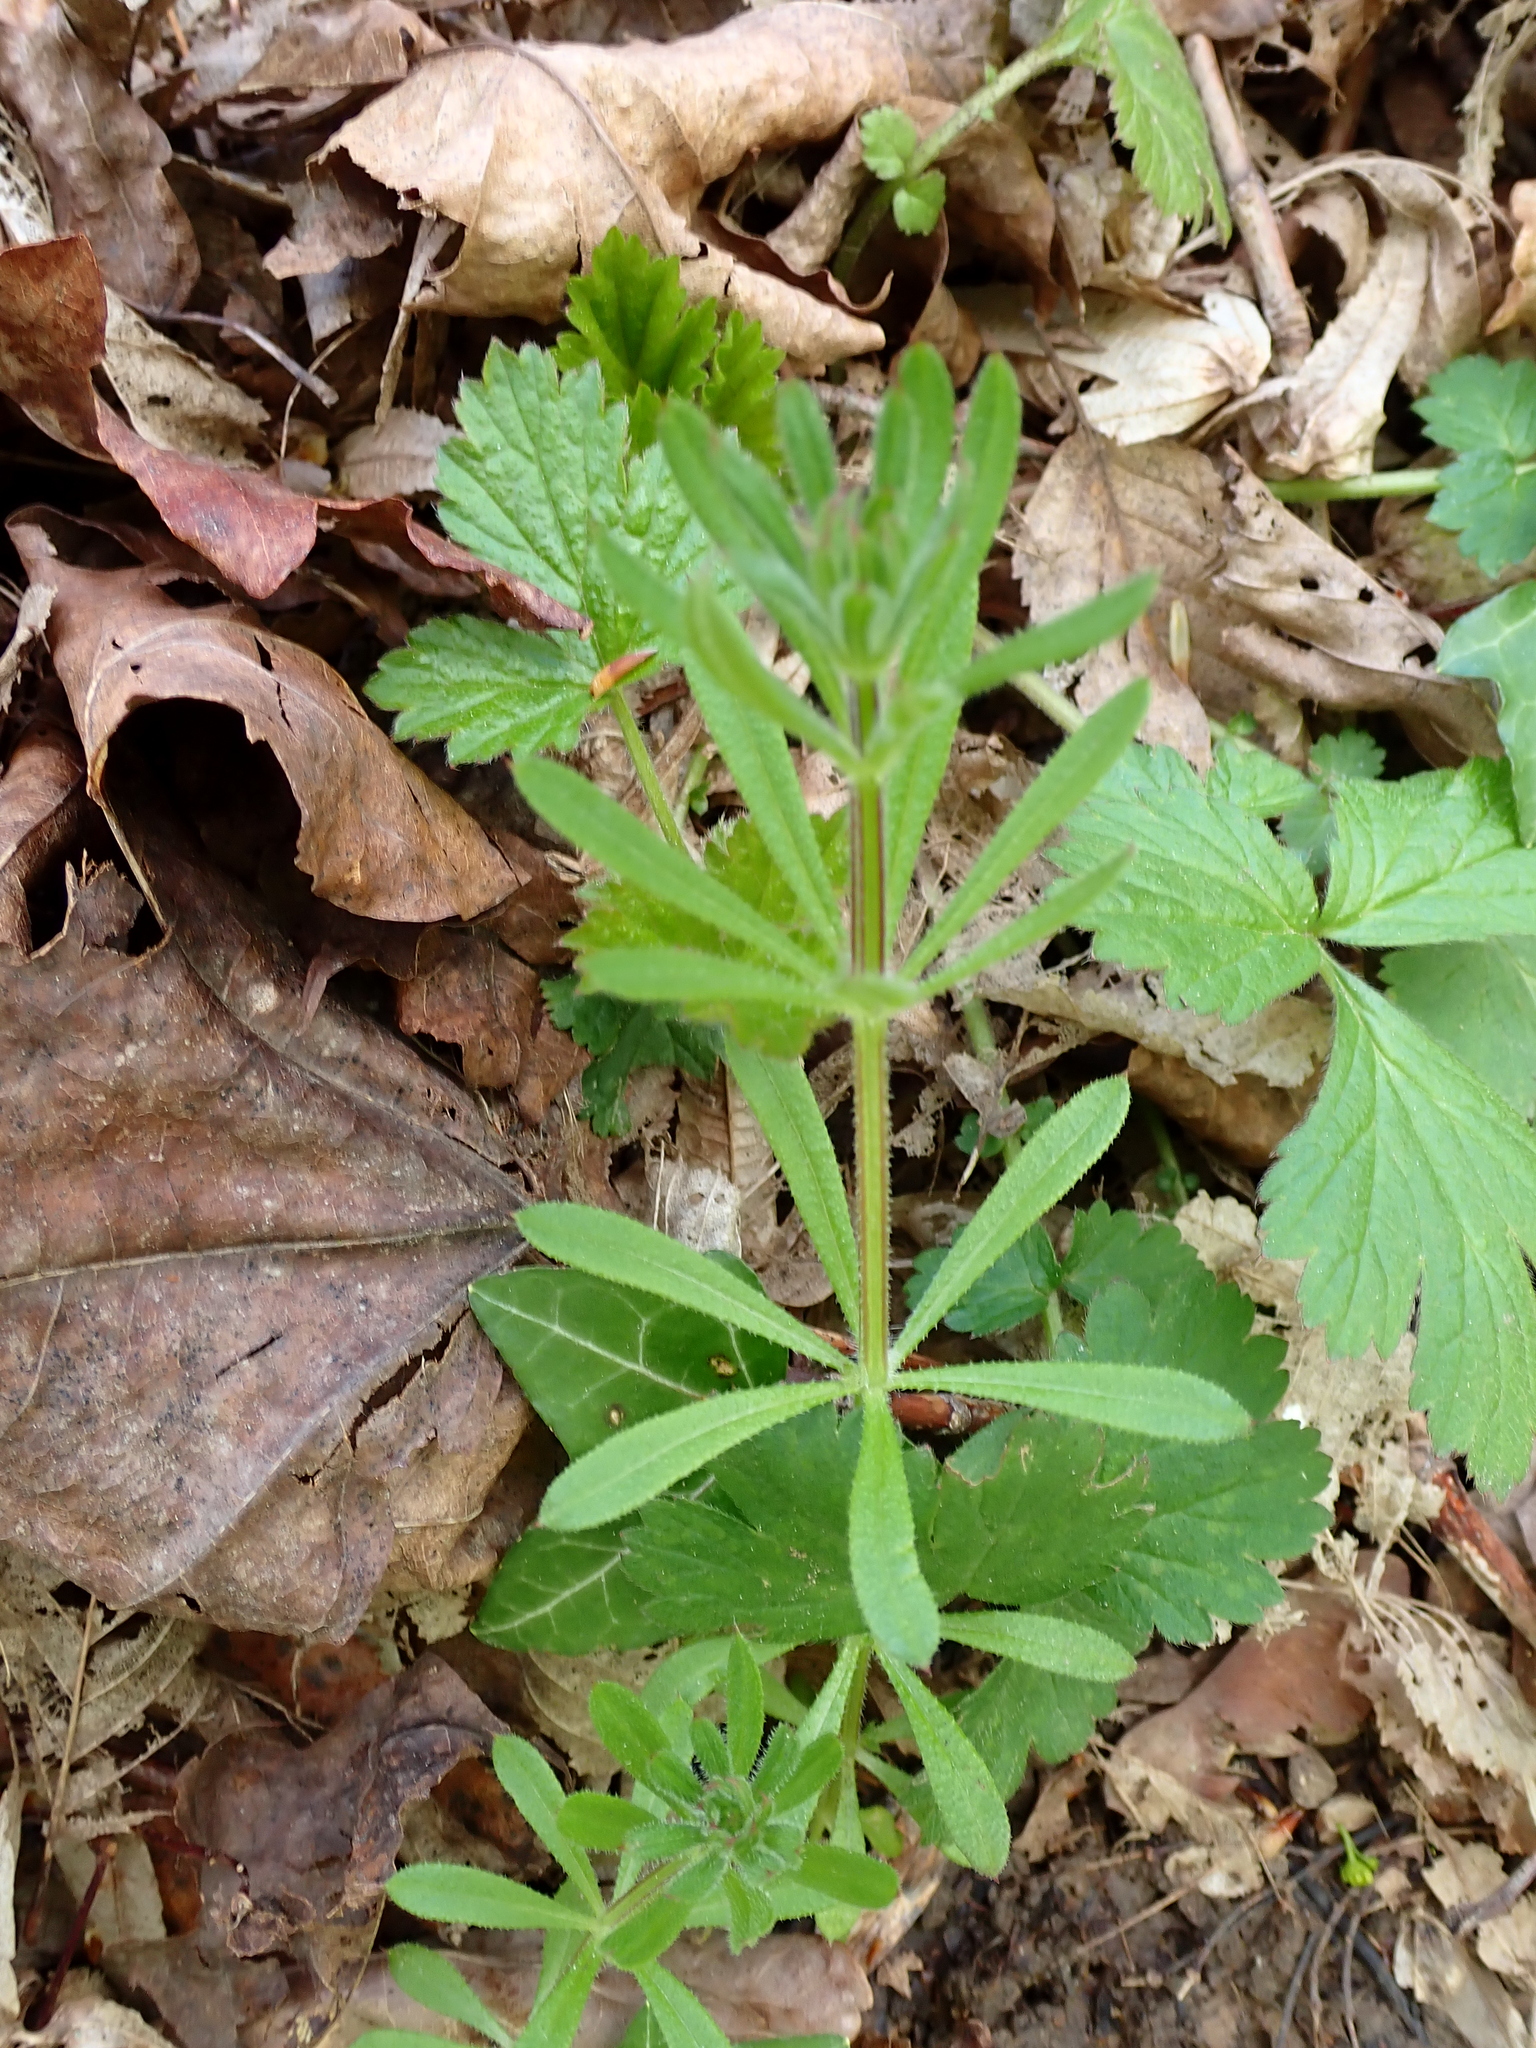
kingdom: Plantae
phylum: Tracheophyta
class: Magnoliopsida
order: Gentianales
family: Rubiaceae
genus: Galium
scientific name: Galium aparine
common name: Cleavers
